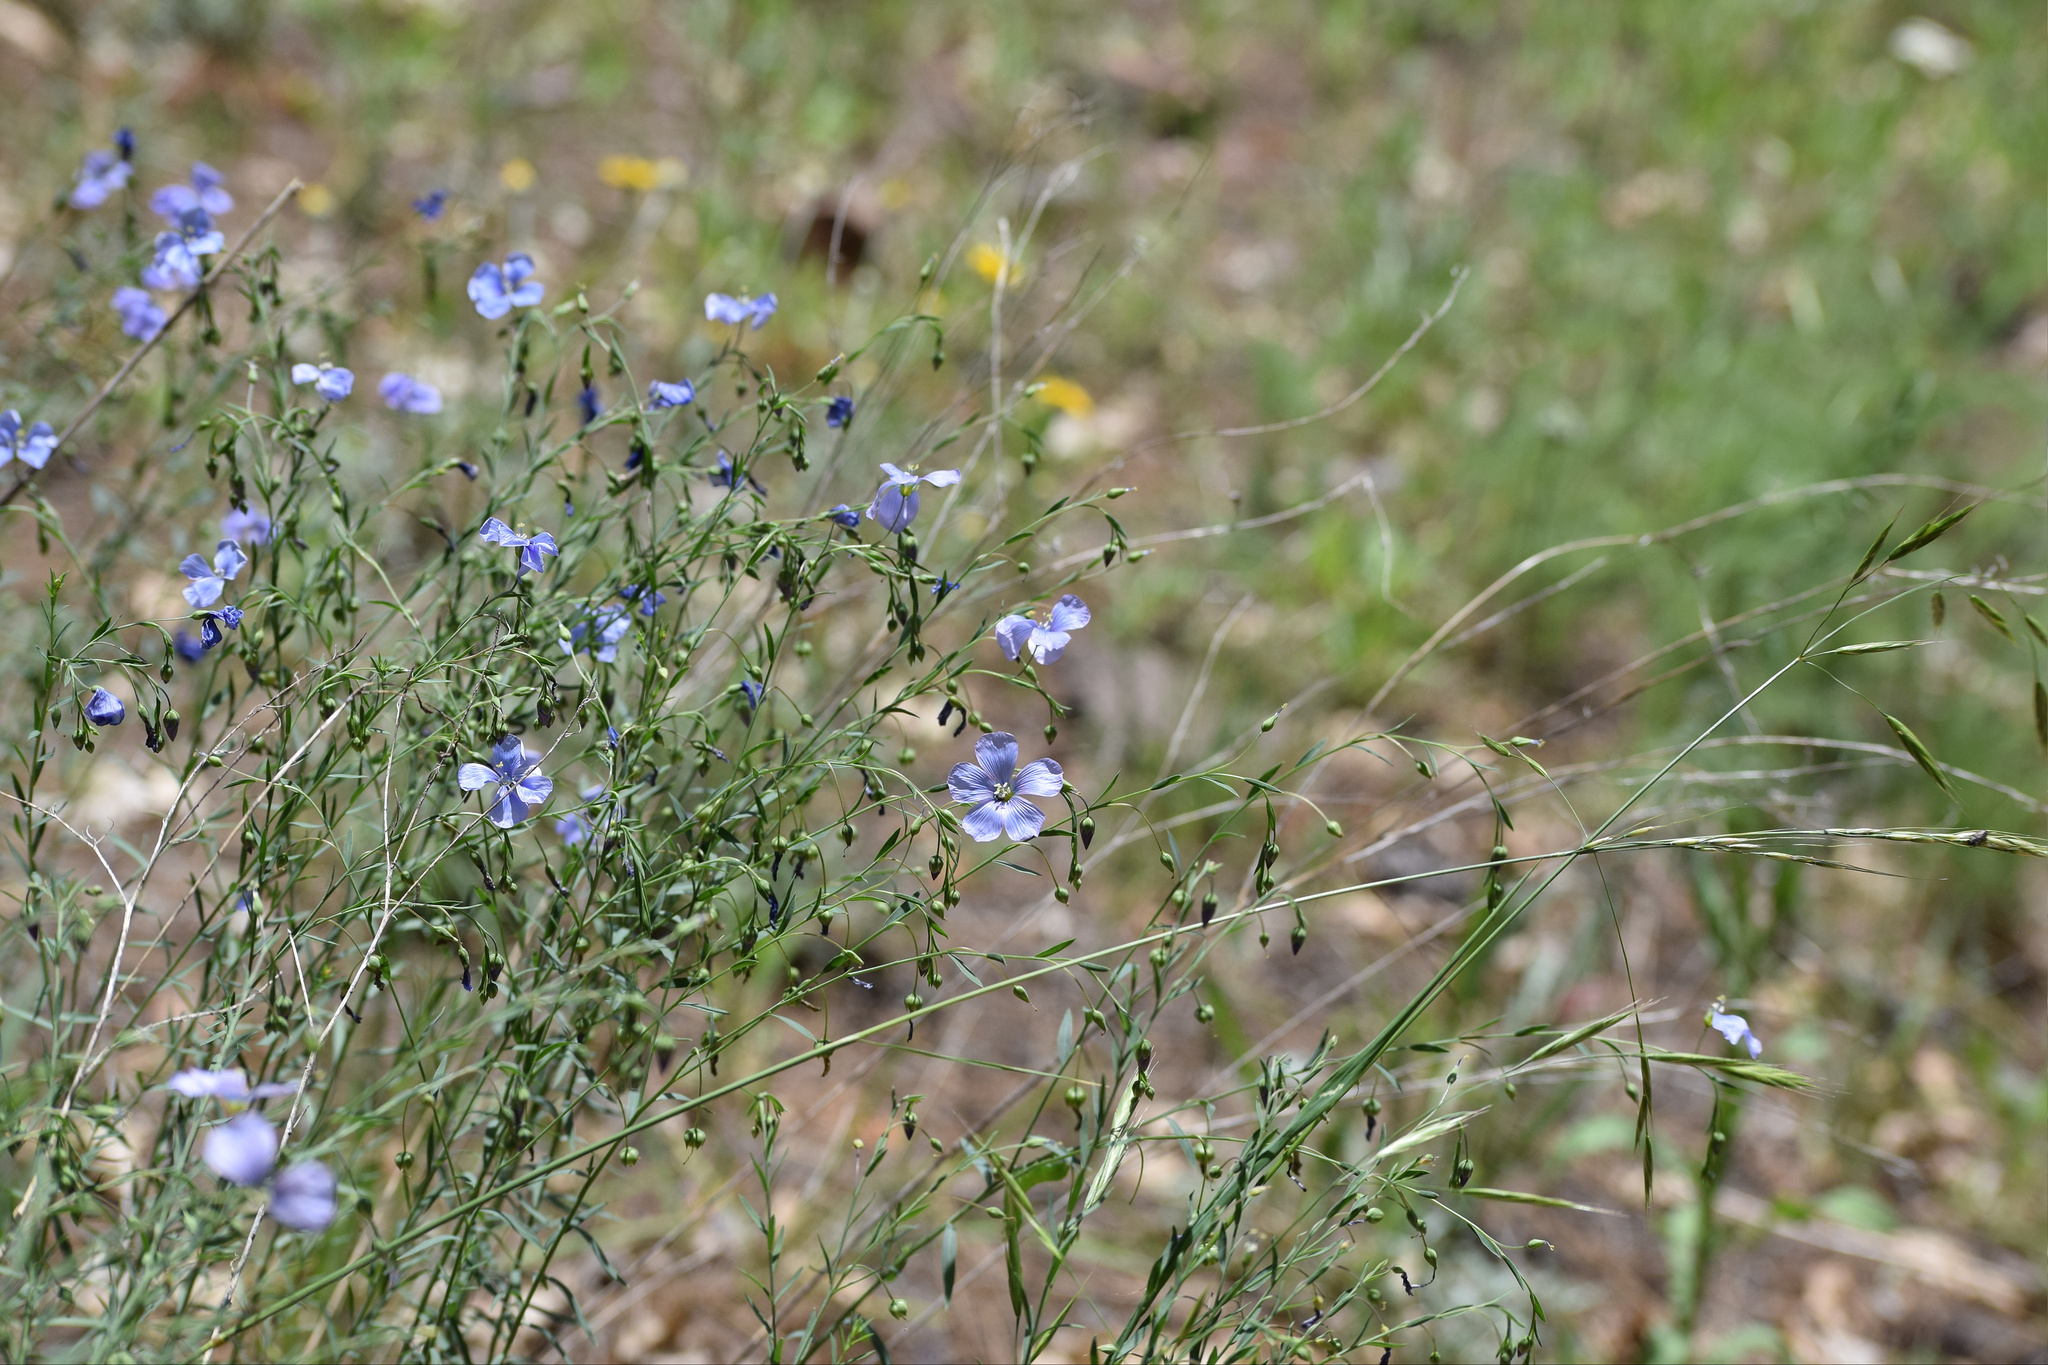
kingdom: Plantae
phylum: Tracheophyta
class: Magnoliopsida
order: Malpighiales
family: Linaceae
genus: Linum
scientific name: Linum lewisii
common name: Prairie flax
